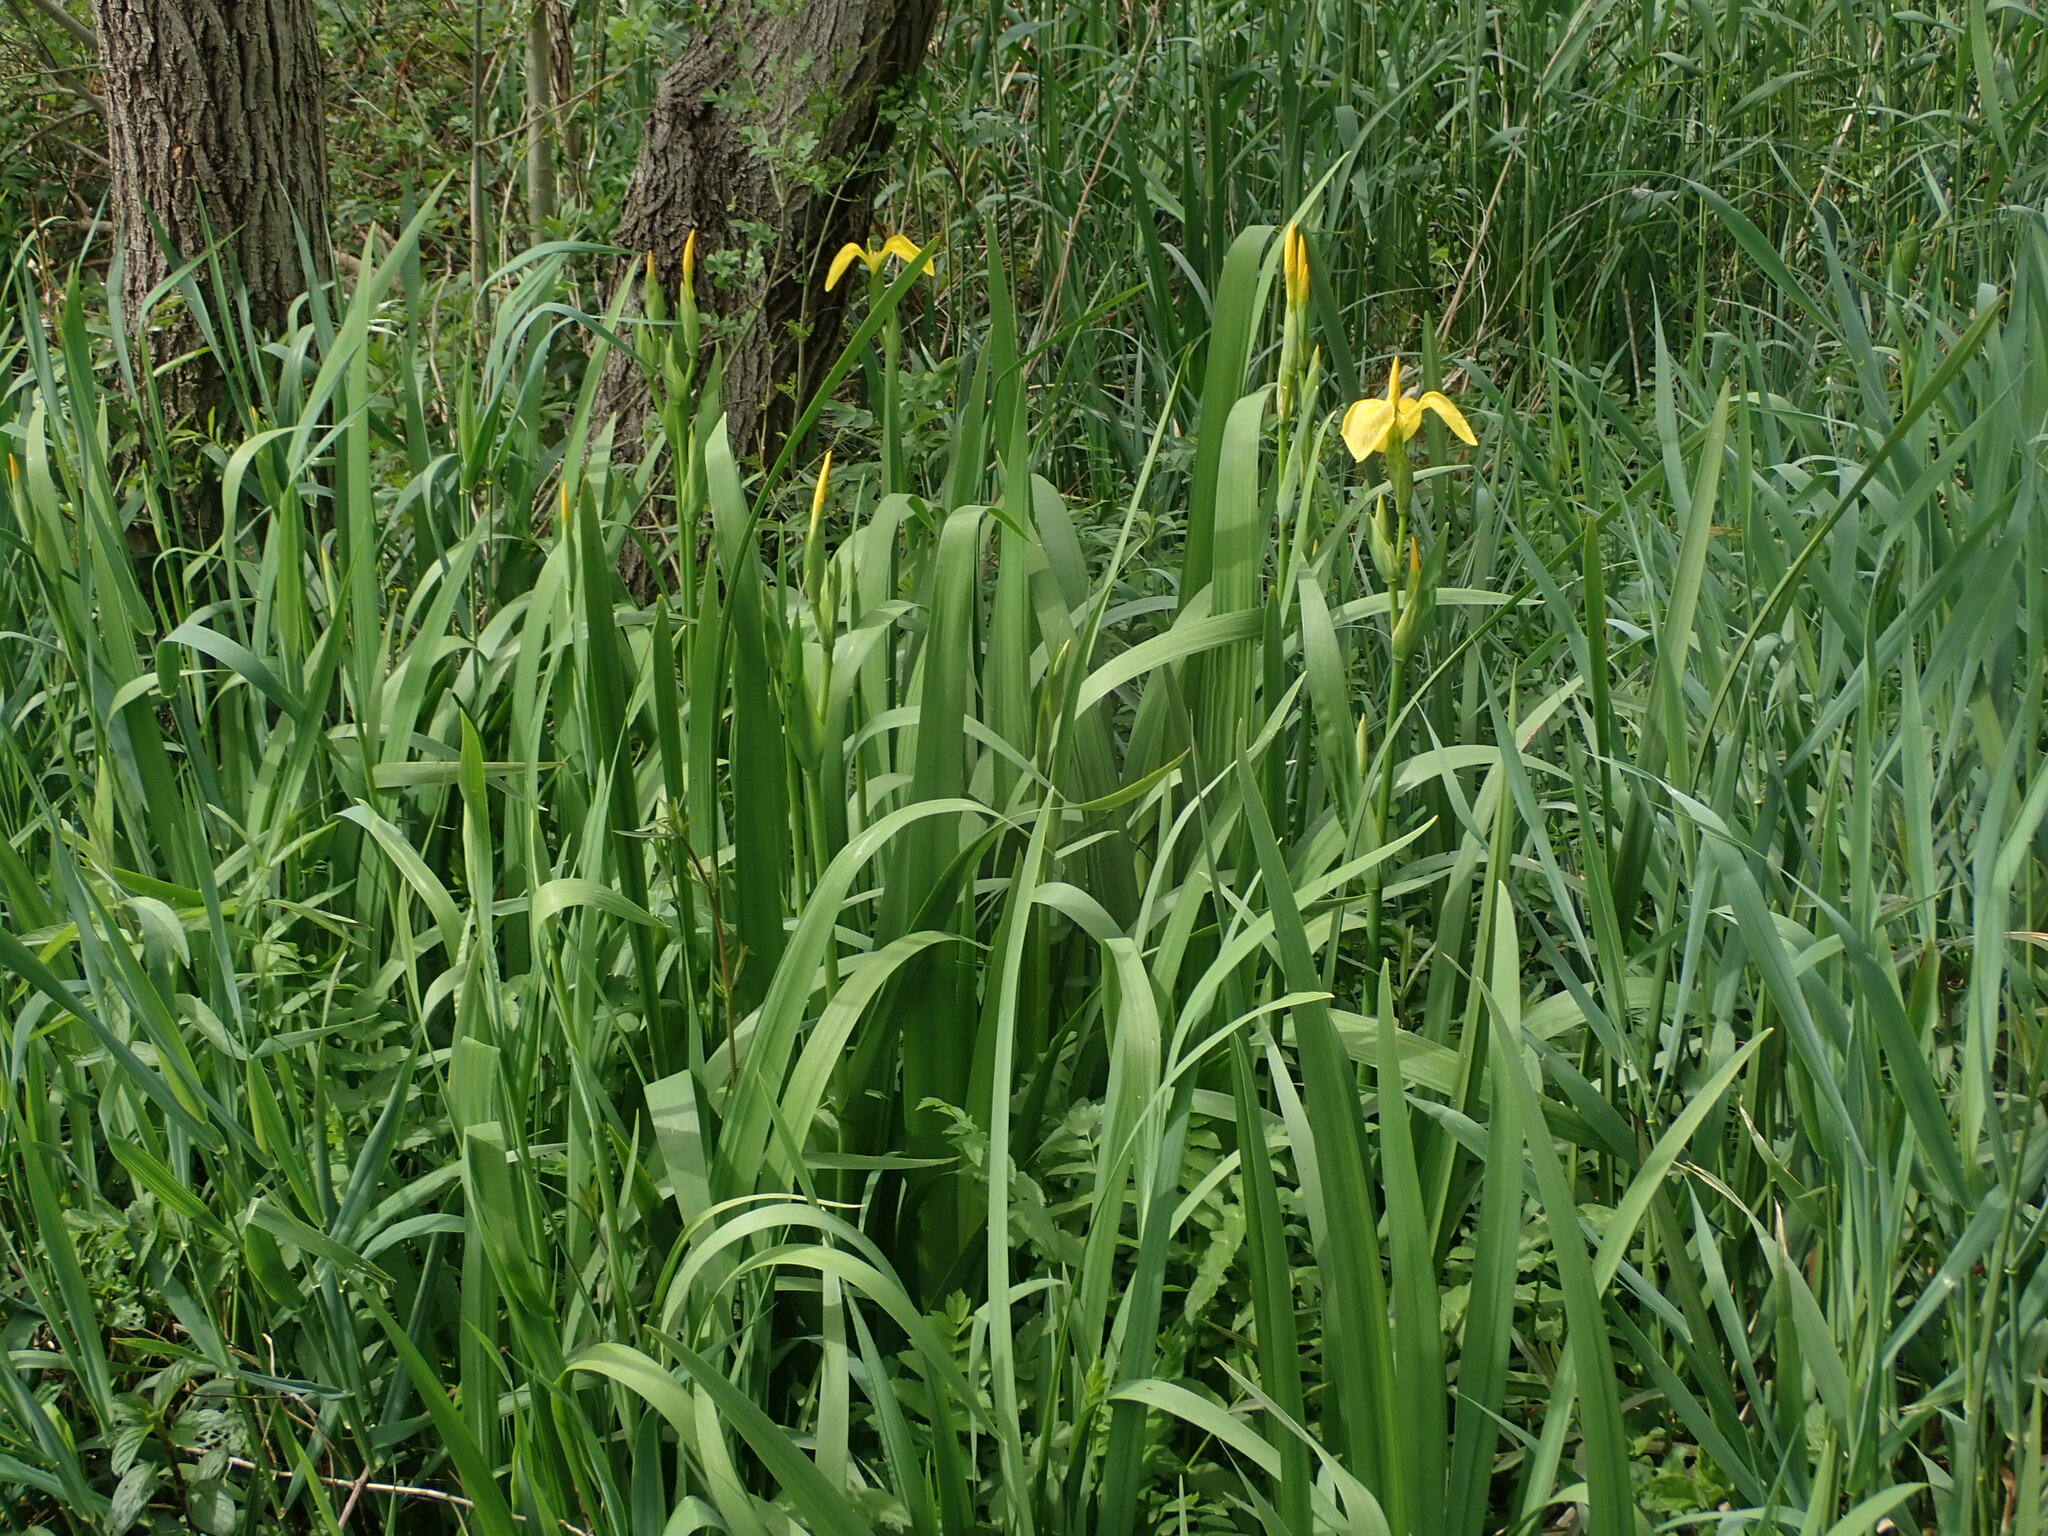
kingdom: Plantae
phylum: Tracheophyta
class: Liliopsida
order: Asparagales
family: Iridaceae
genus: Iris
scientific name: Iris pseudacorus
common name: Yellow flag
